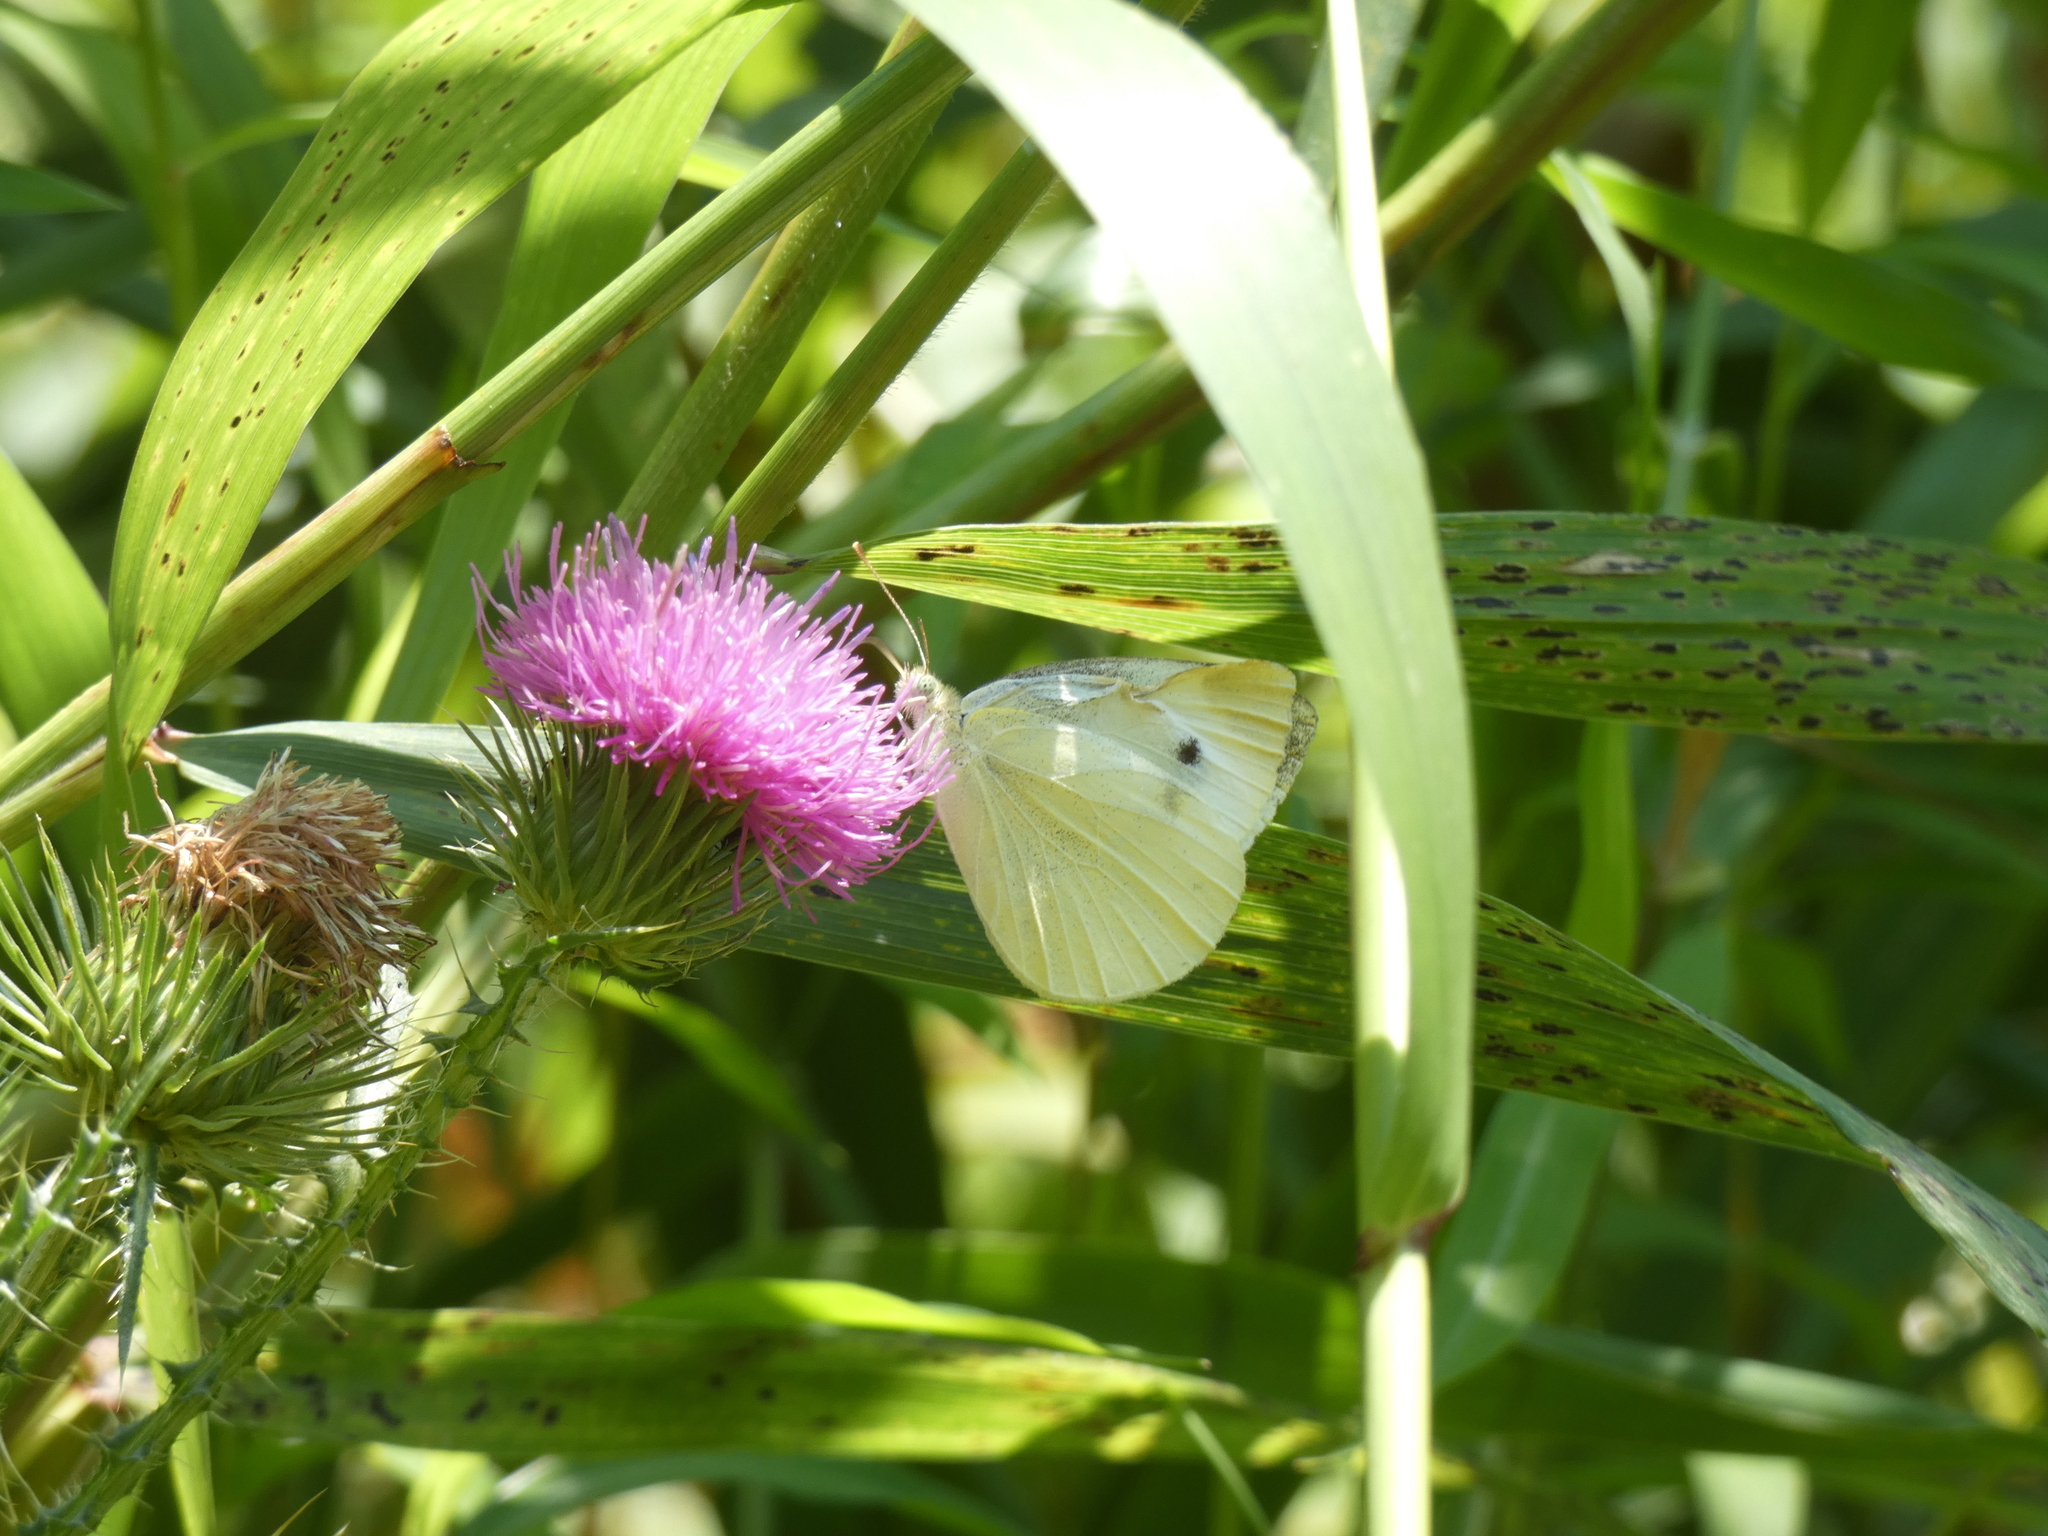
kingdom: Animalia
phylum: Arthropoda
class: Insecta
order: Lepidoptera
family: Pieridae
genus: Pieris
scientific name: Pieris rapae
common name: Small white
